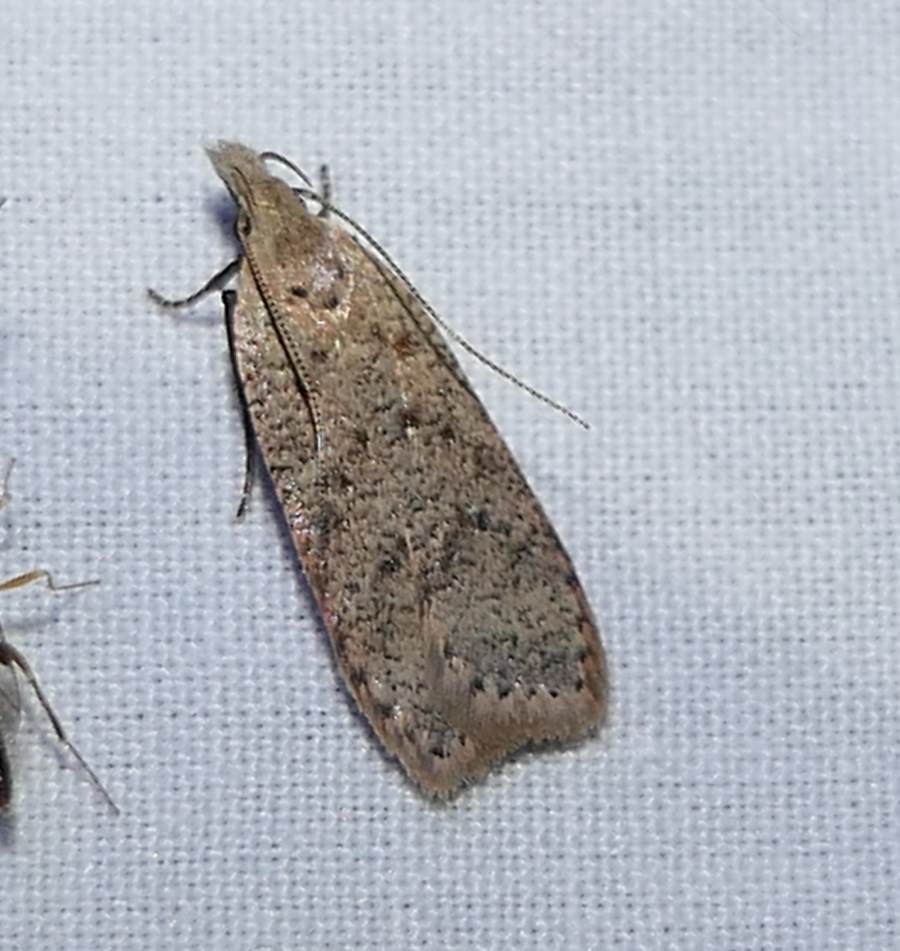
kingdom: Animalia
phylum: Arthropoda
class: Insecta
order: Lepidoptera
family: Gelechiidae
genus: Dichomeris
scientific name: Dichomeris ventrellus
